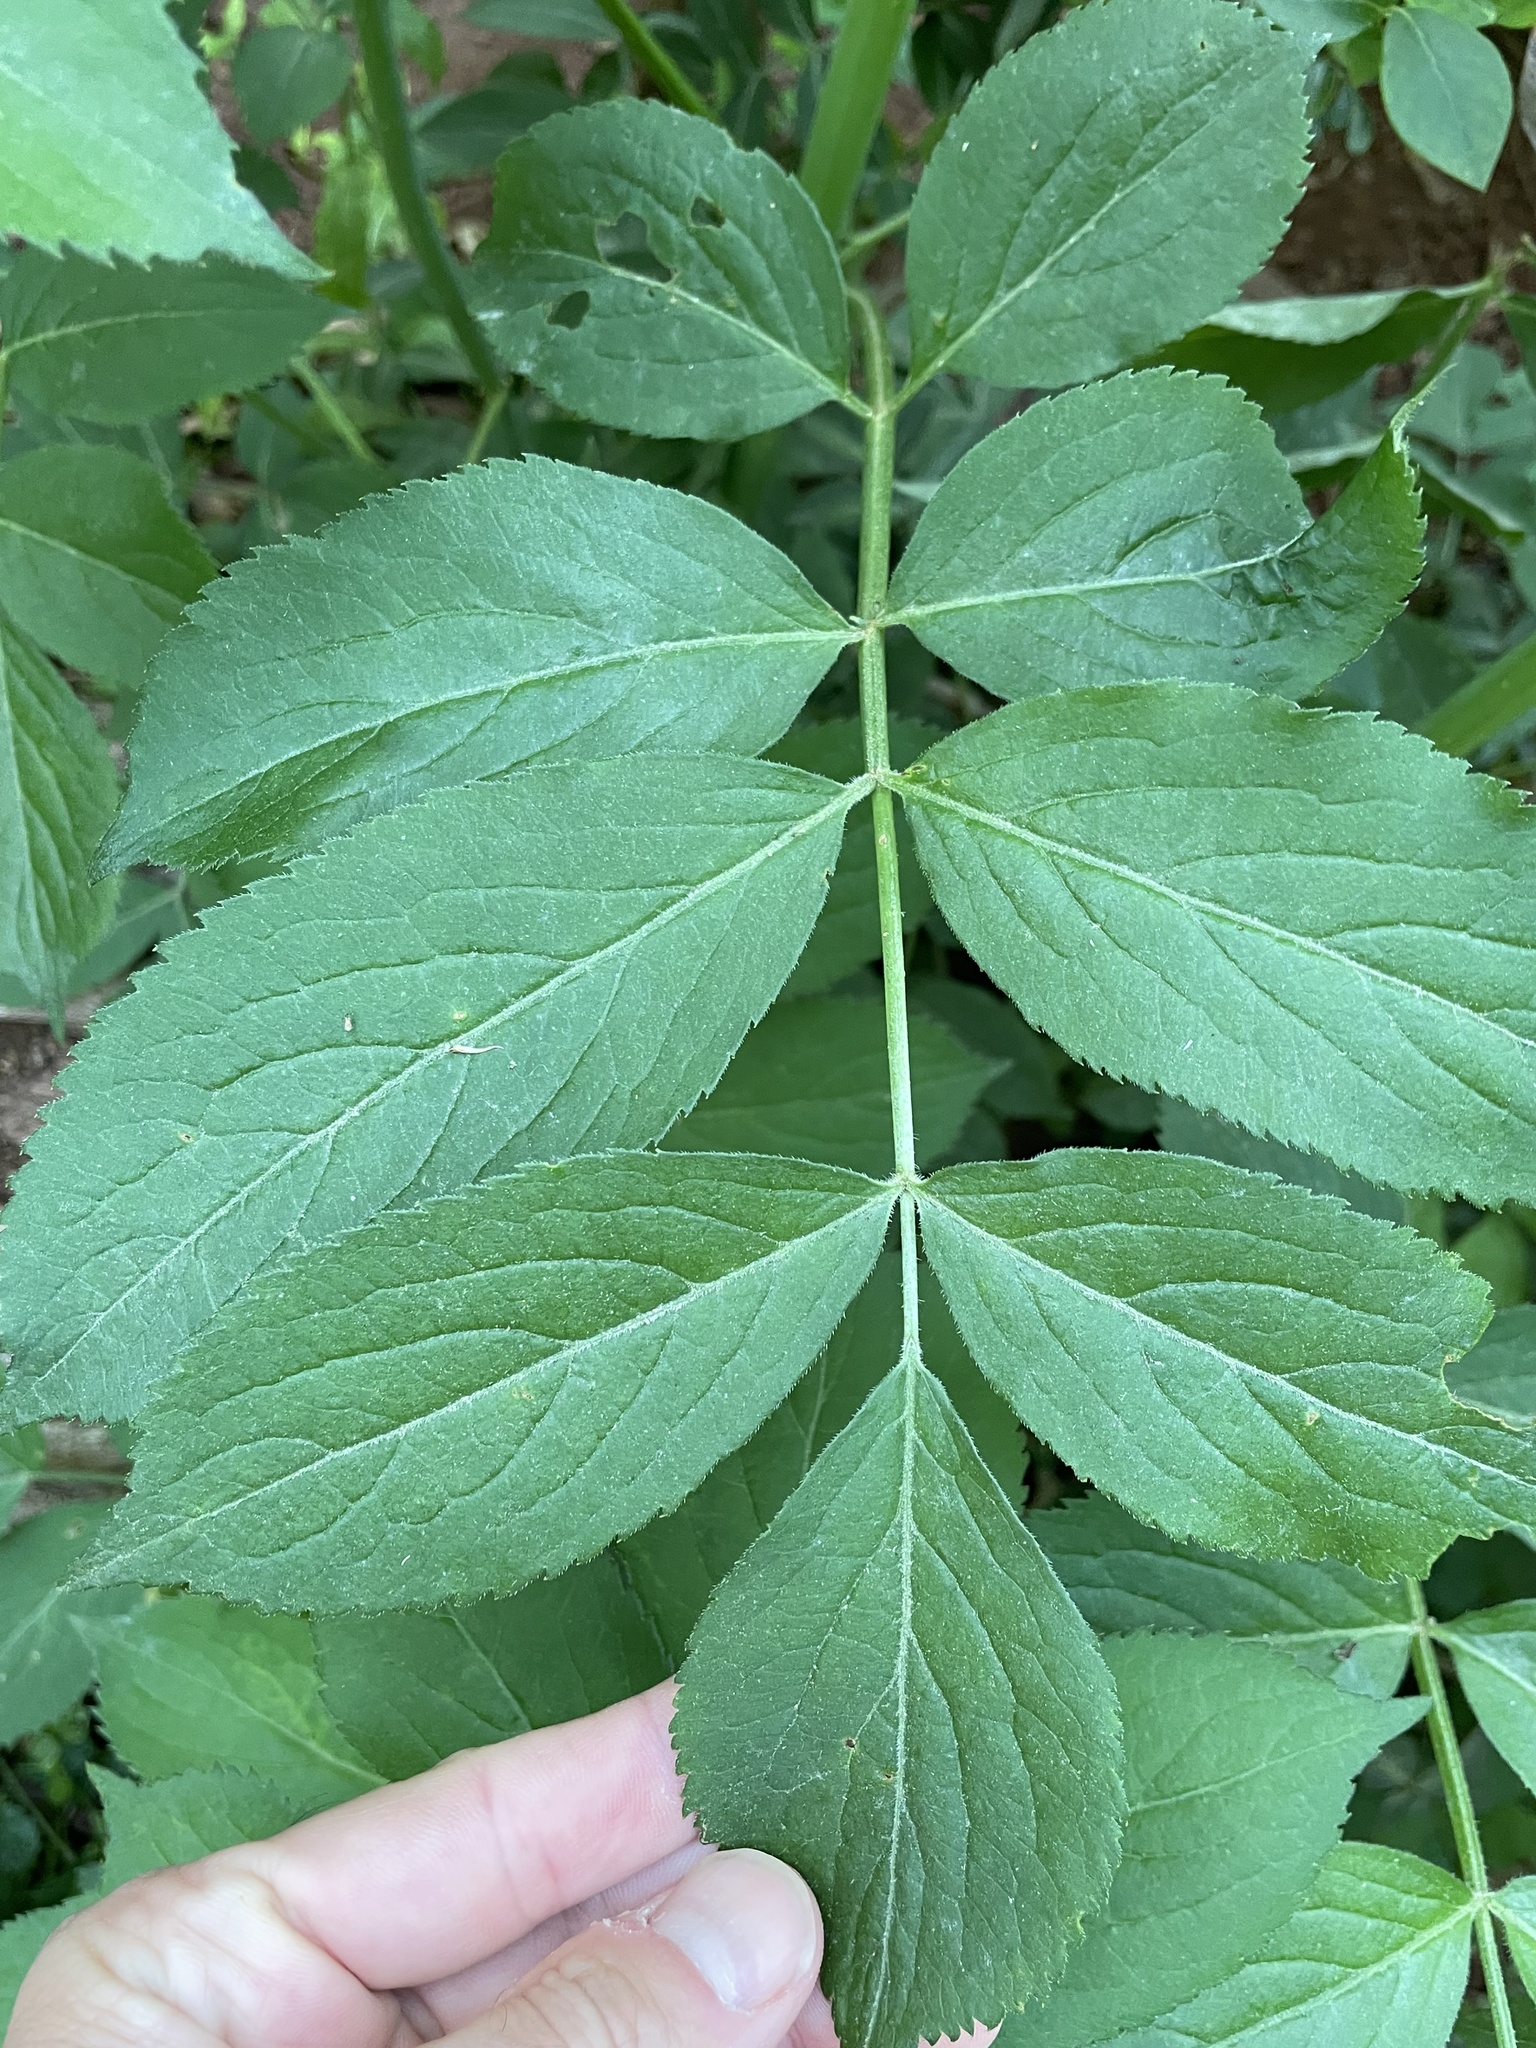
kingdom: Plantae
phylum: Tracheophyta
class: Magnoliopsida
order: Dipsacales
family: Viburnaceae
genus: Sambucus
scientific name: Sambucus canadensis
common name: American elder
